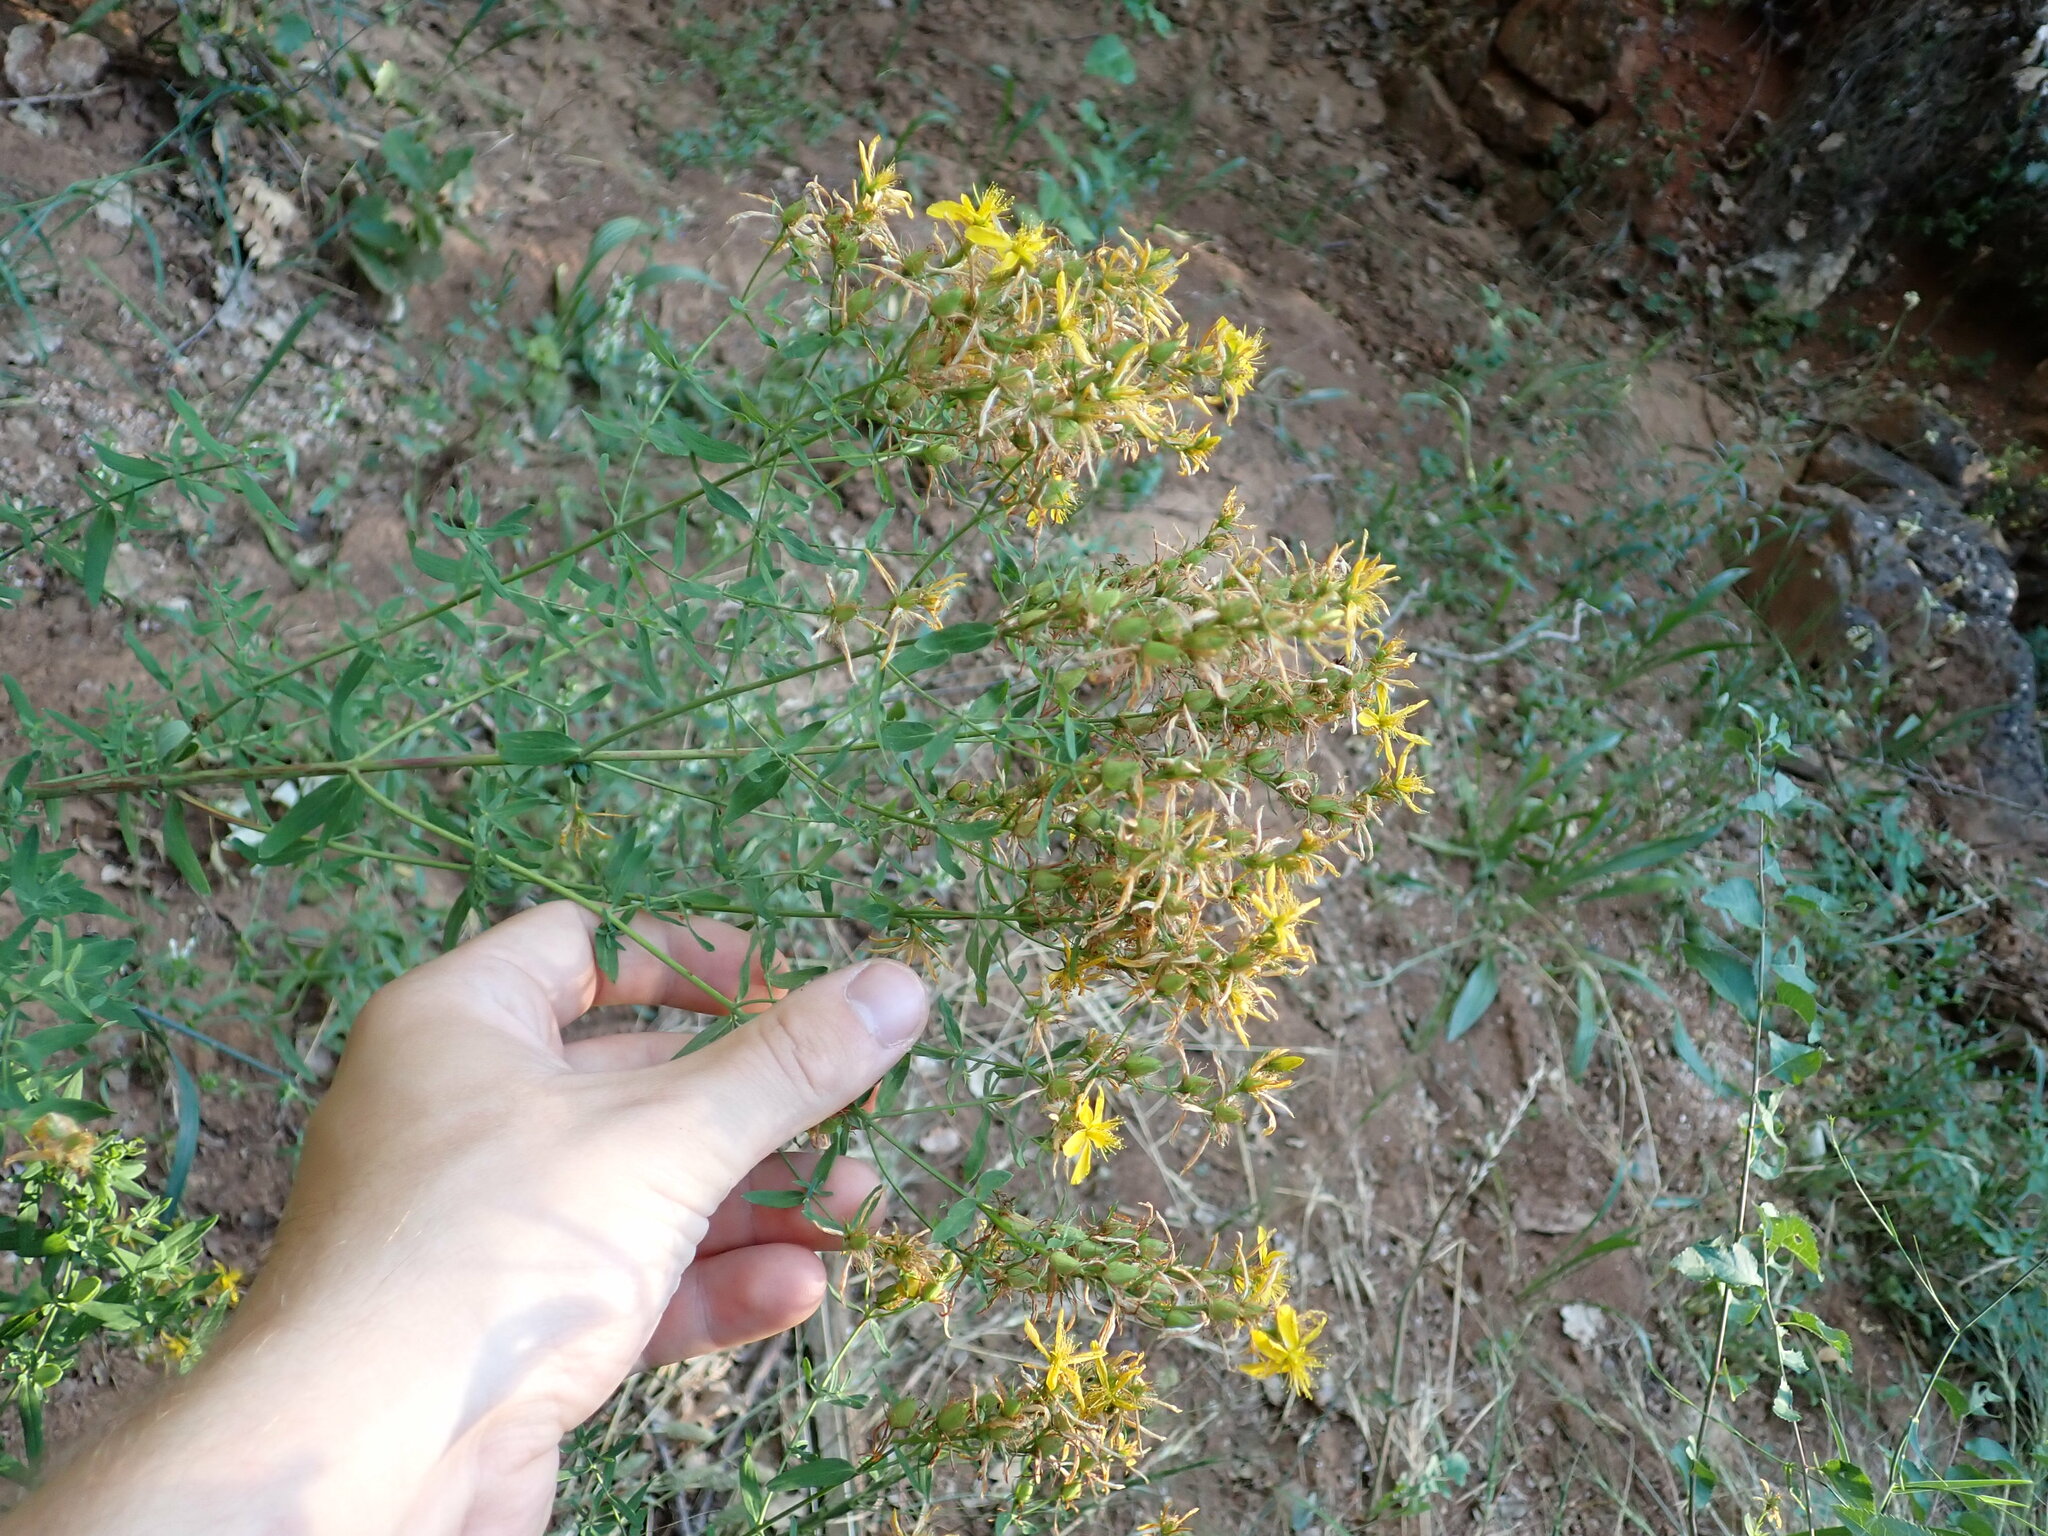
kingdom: Plantae
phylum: Tracheophyta
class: Magnoliopsida
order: Malpighiales
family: Hypericaceae
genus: Hypericum
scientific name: Hypericum perforatum
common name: Common st. johnswort
